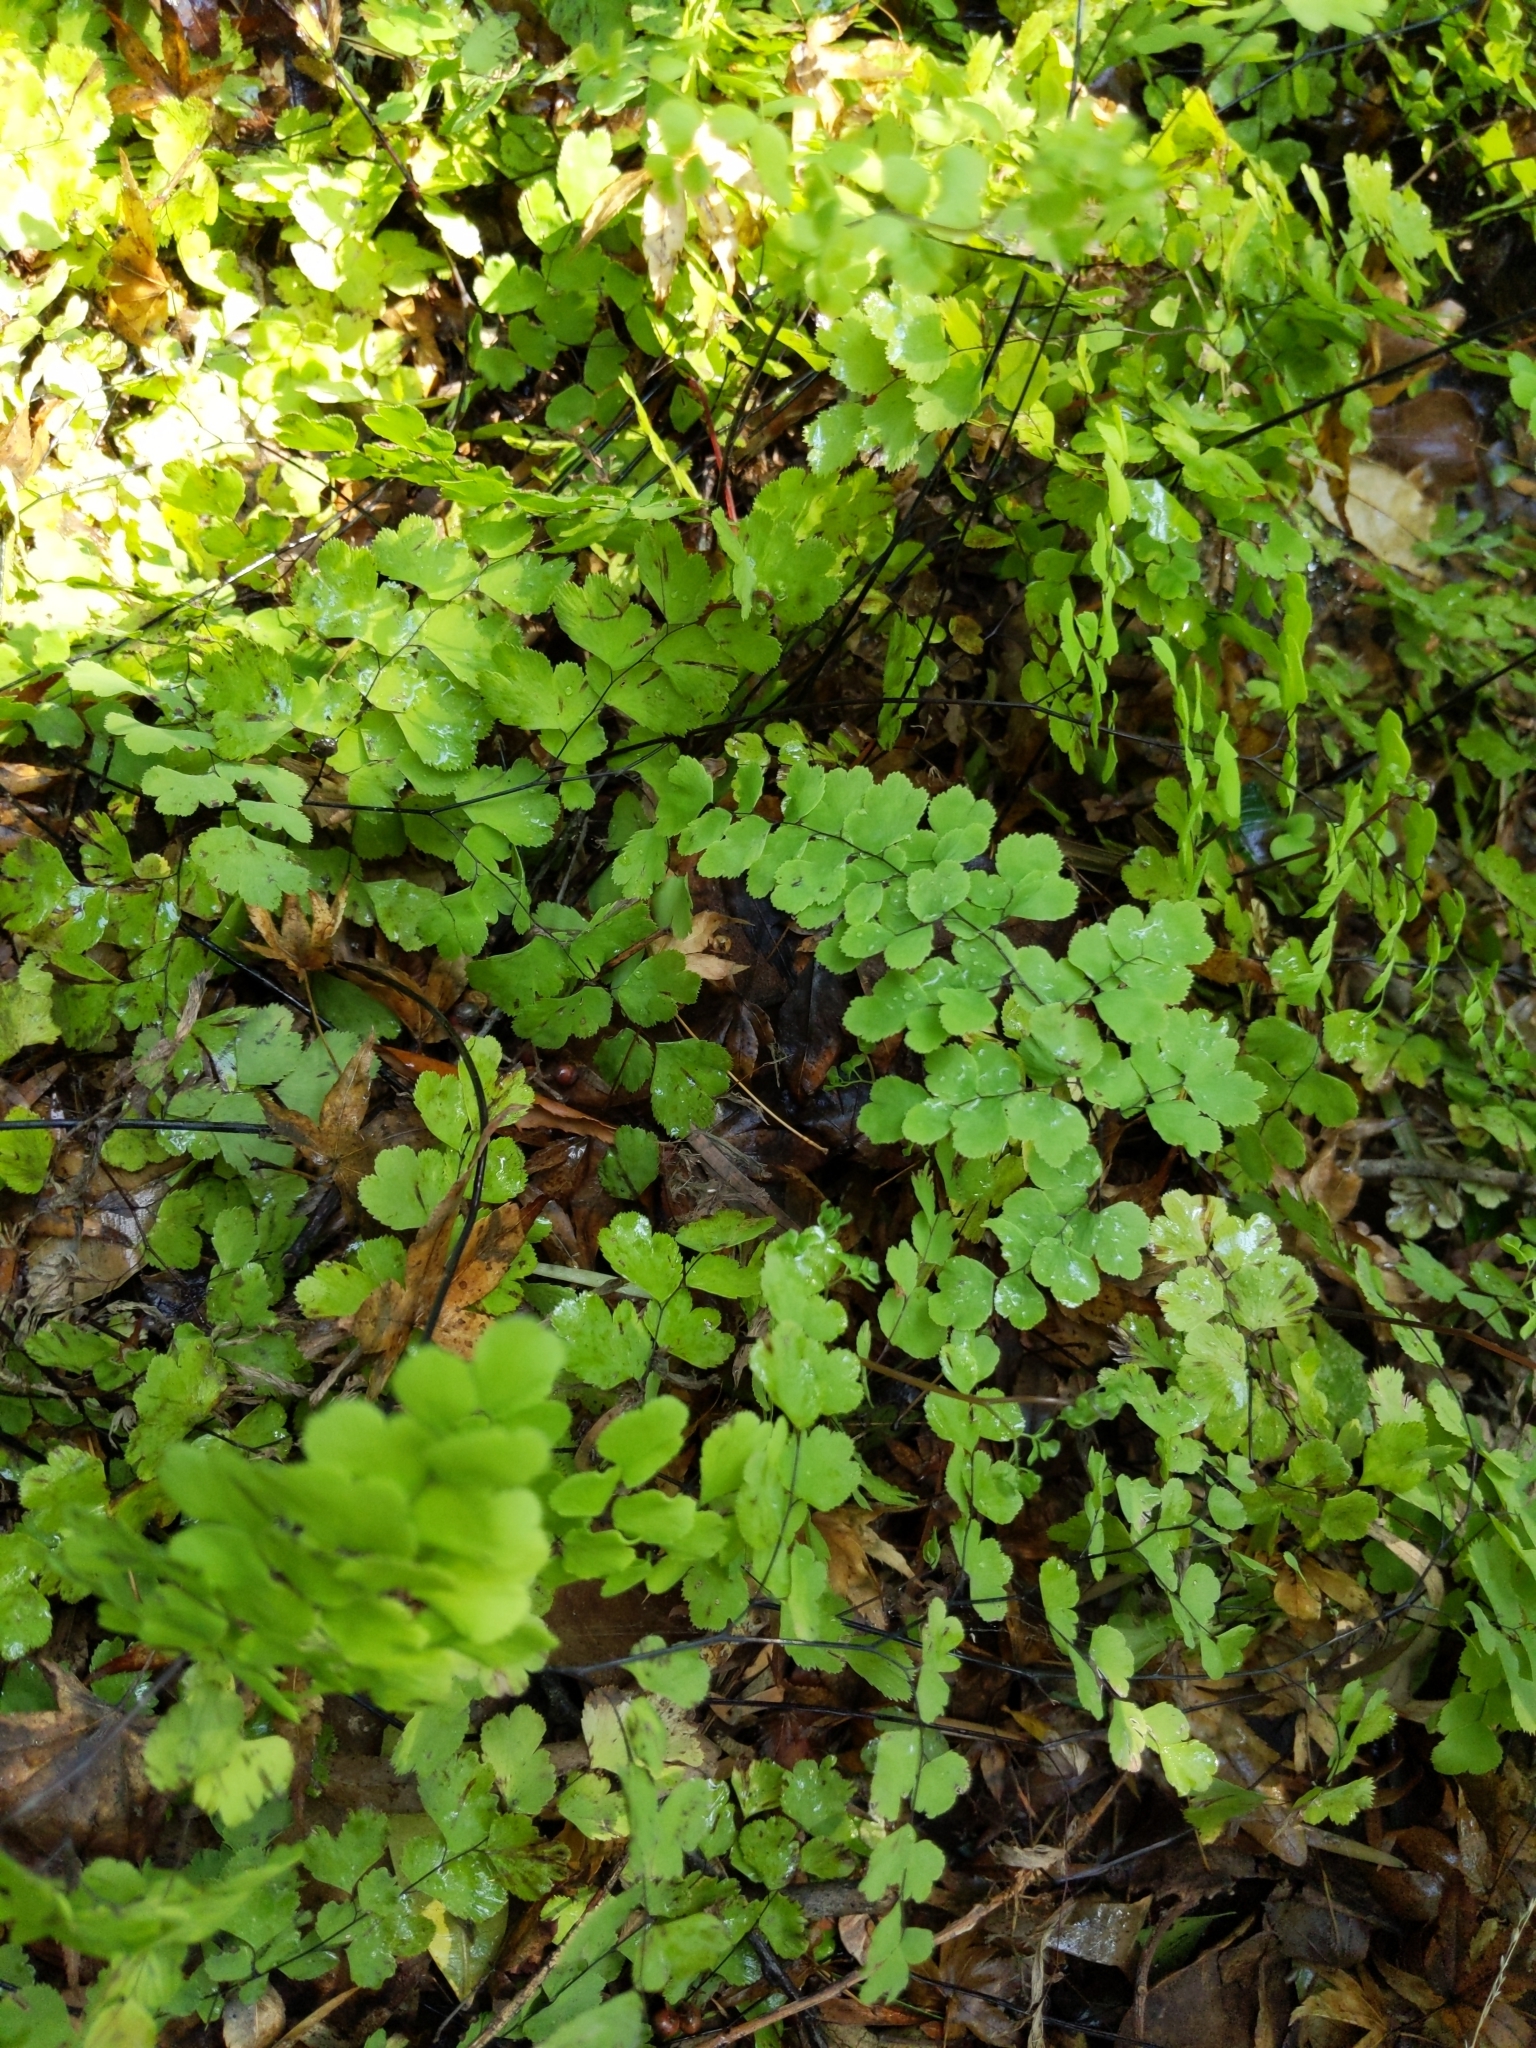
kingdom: Plantae
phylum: Tracheophyta
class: Polypodiopsida
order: Polypodiales
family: Pteridaceae
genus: Adiantum
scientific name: Adiantum capillus-veneris
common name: Maidenhair fern
